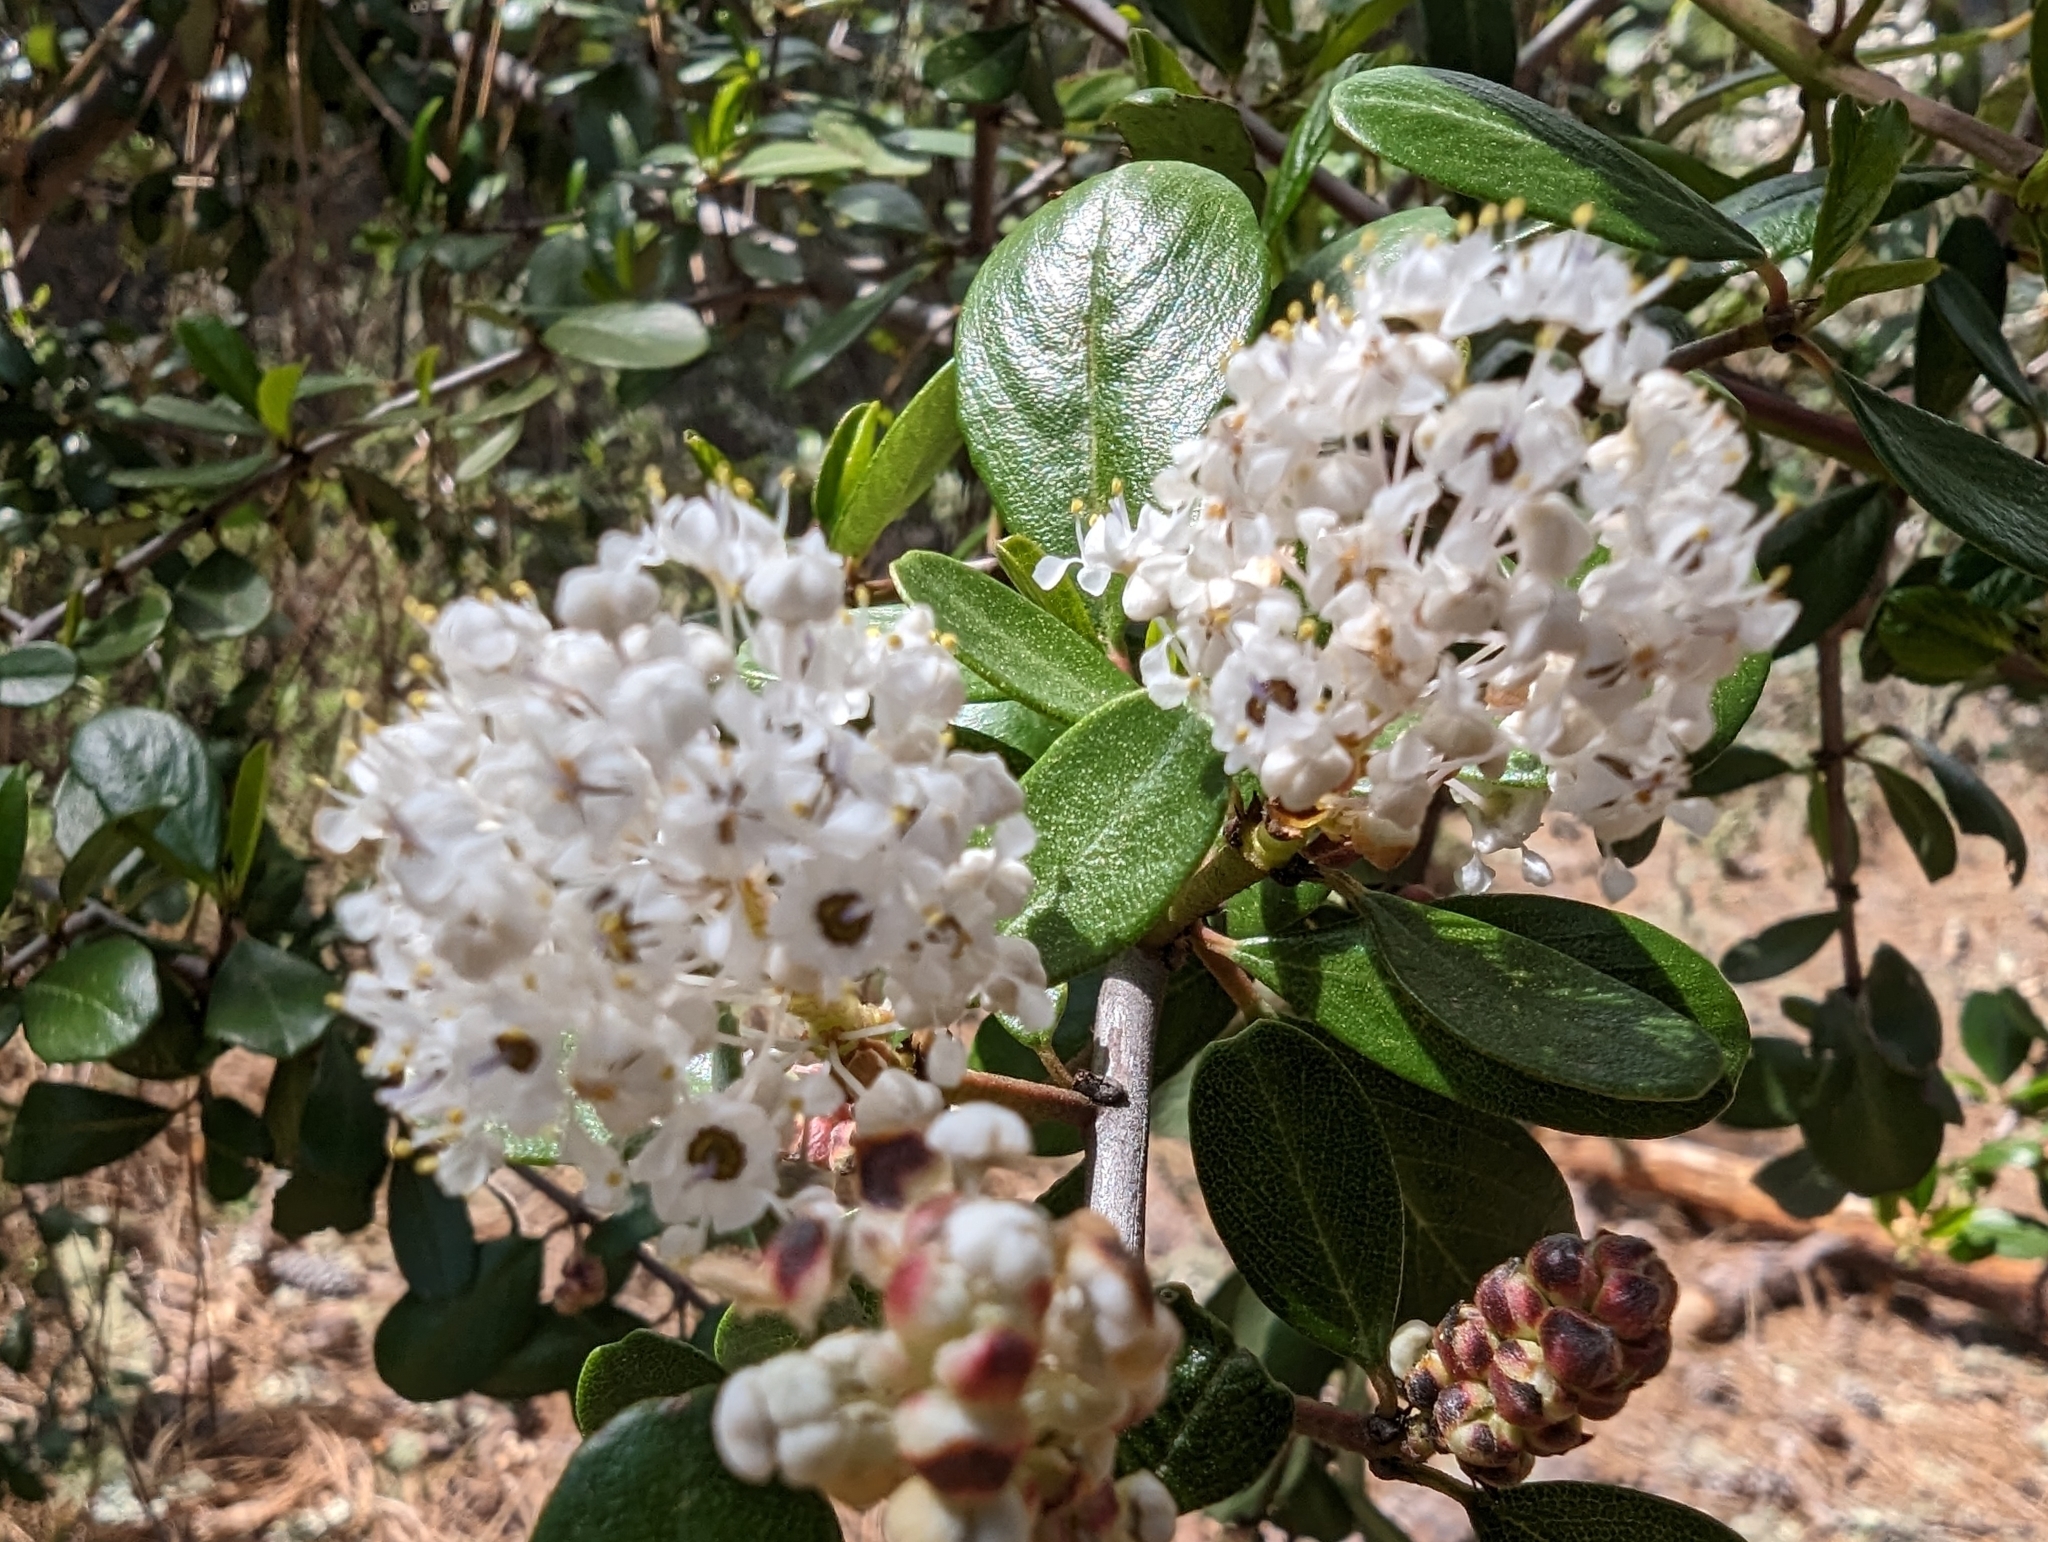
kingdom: Plantae
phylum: Tracheophyta
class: Magnoliopsida
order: Rosales
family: Rhamnaceae
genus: Ceanothus
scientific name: Ceanothus cuneatus
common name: Cuneate ceanothus
